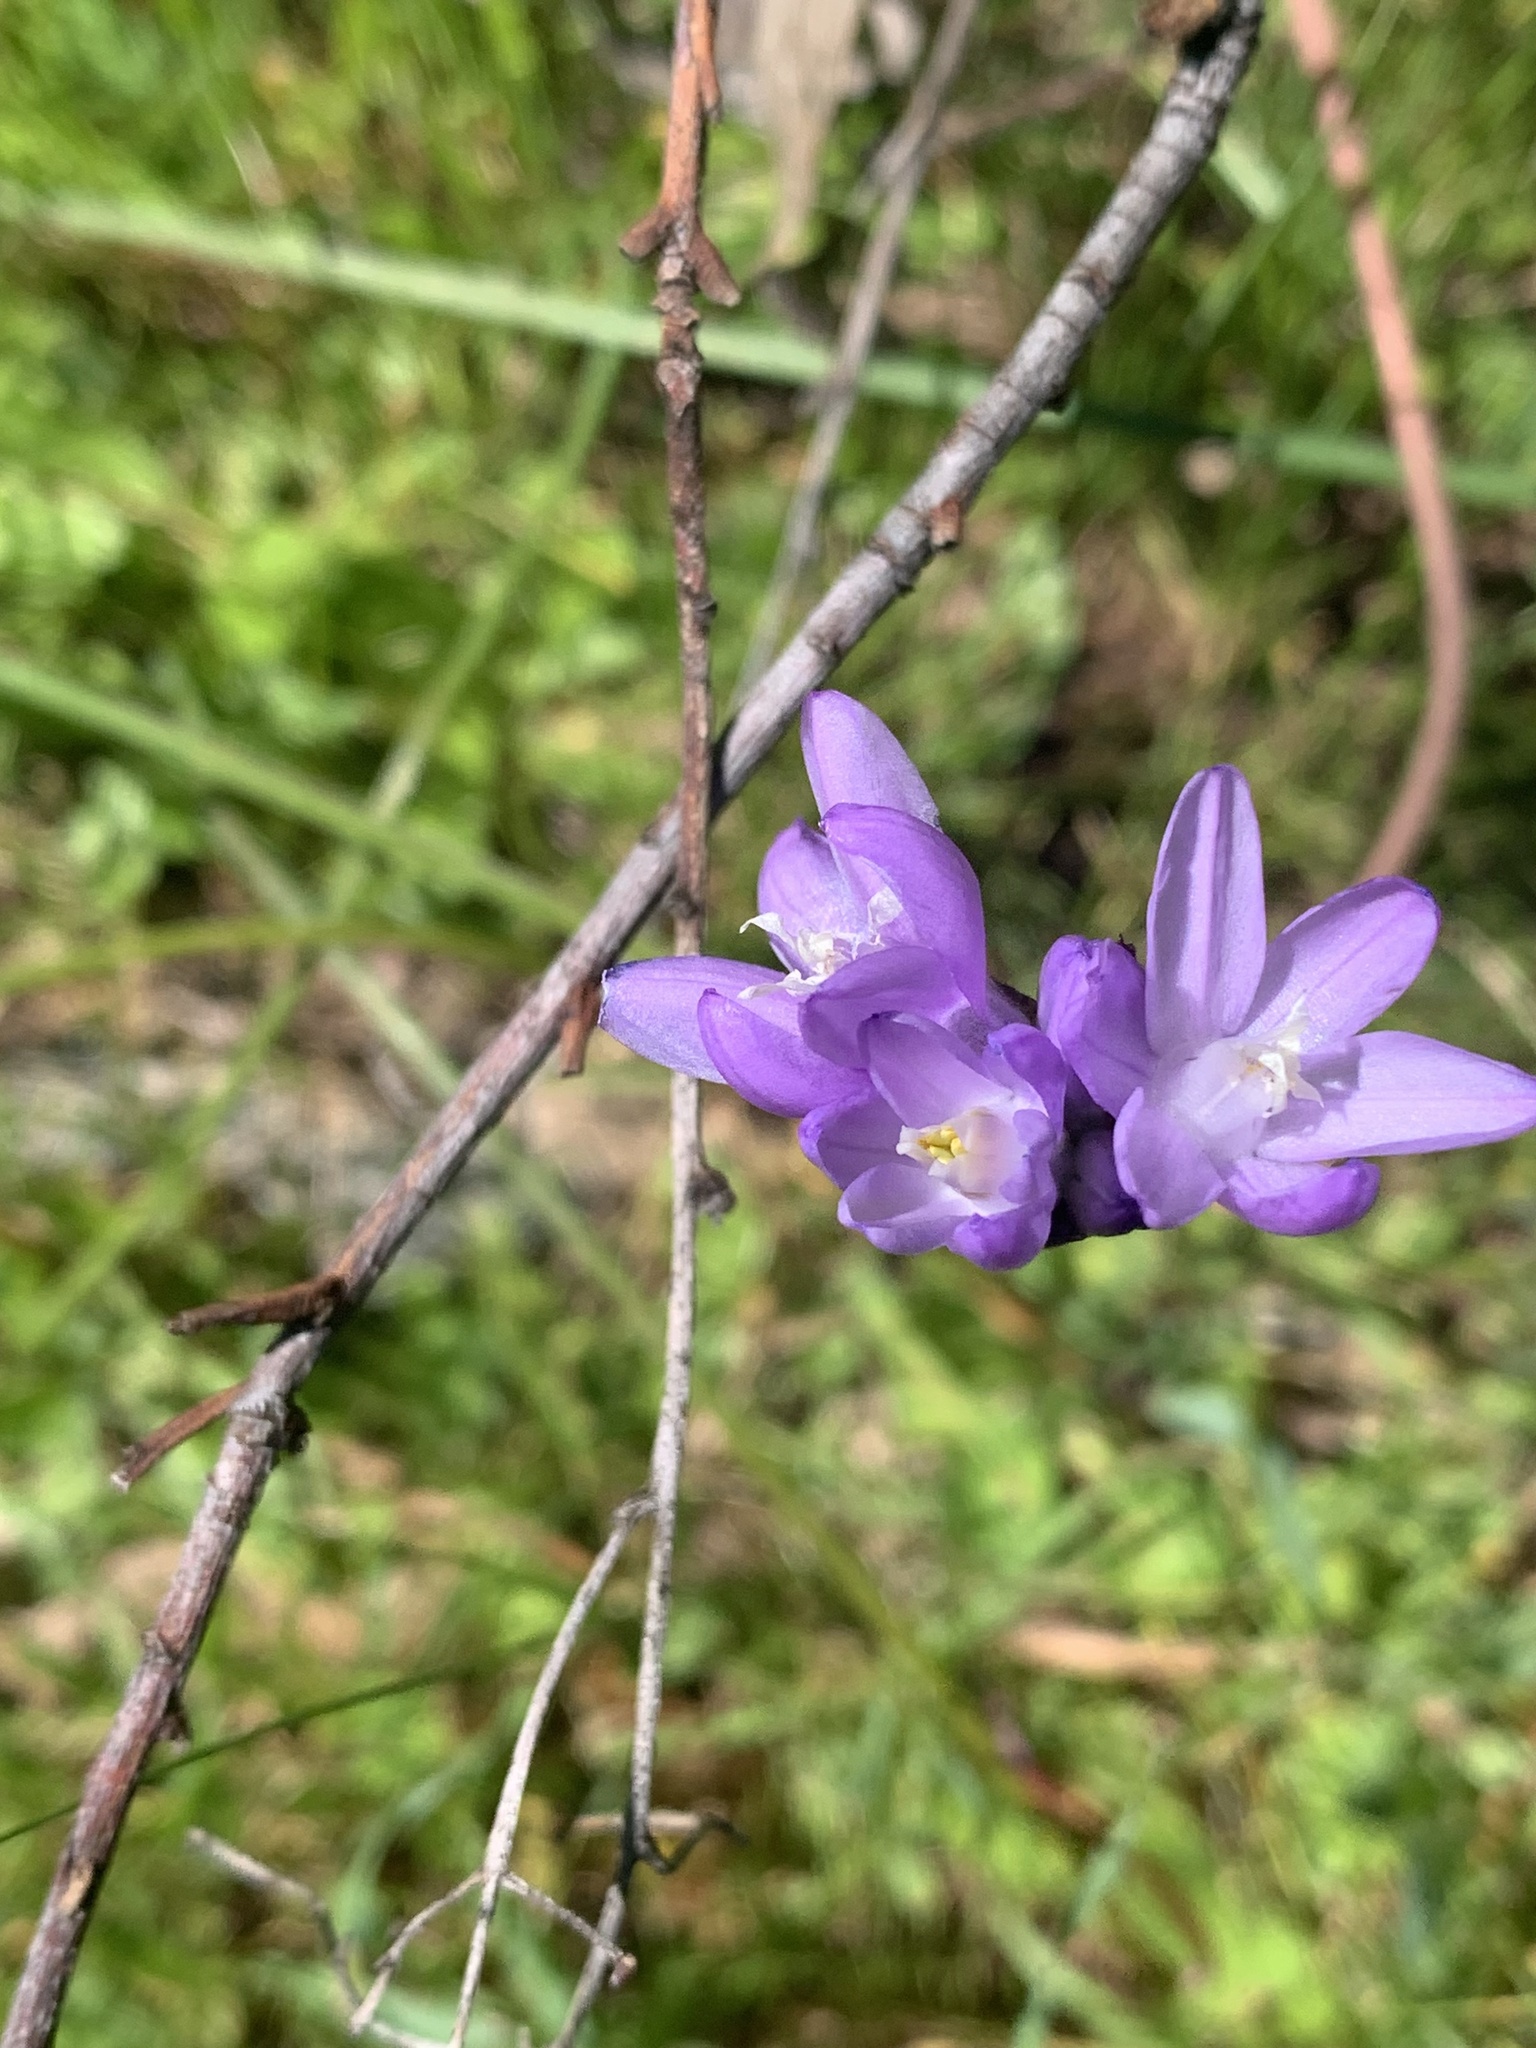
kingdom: Plantae
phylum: Tracheophyta
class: Liliopsida
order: Asparagales
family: Asparagaceae
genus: Dipterostemon
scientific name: Dipterostemon capitatus
